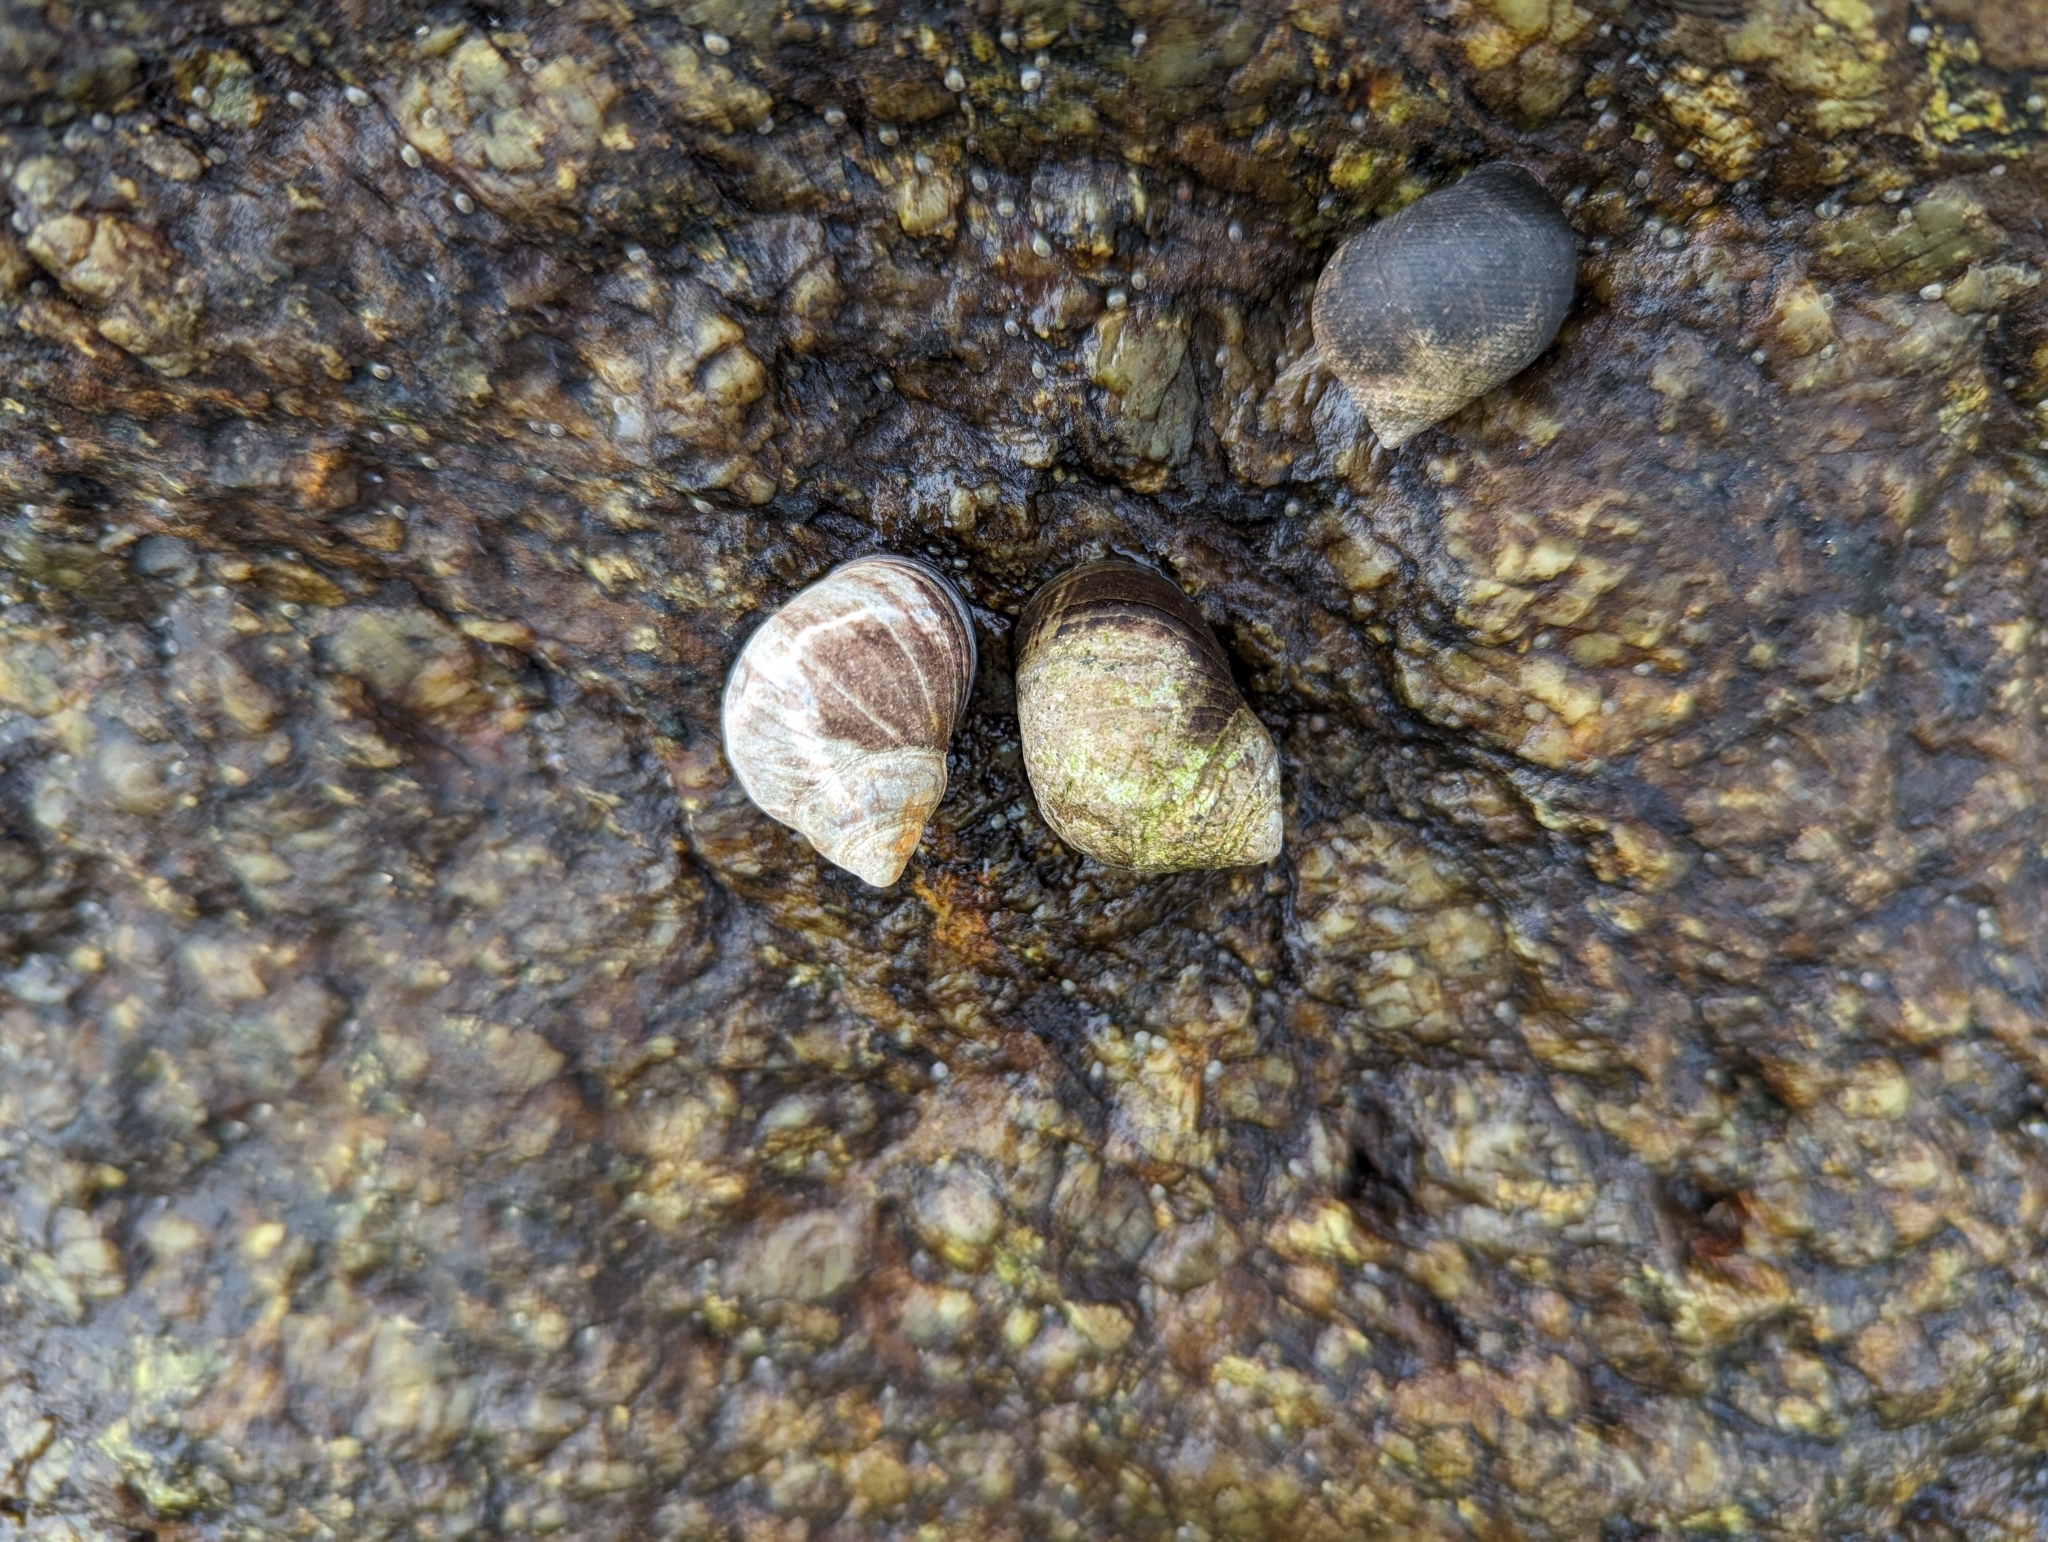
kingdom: Animalia
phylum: Mollusca
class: Gastropoda
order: Littorinimorpha
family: Littorinidae
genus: Littorina
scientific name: Littorina littorea
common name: Common periwinkle
